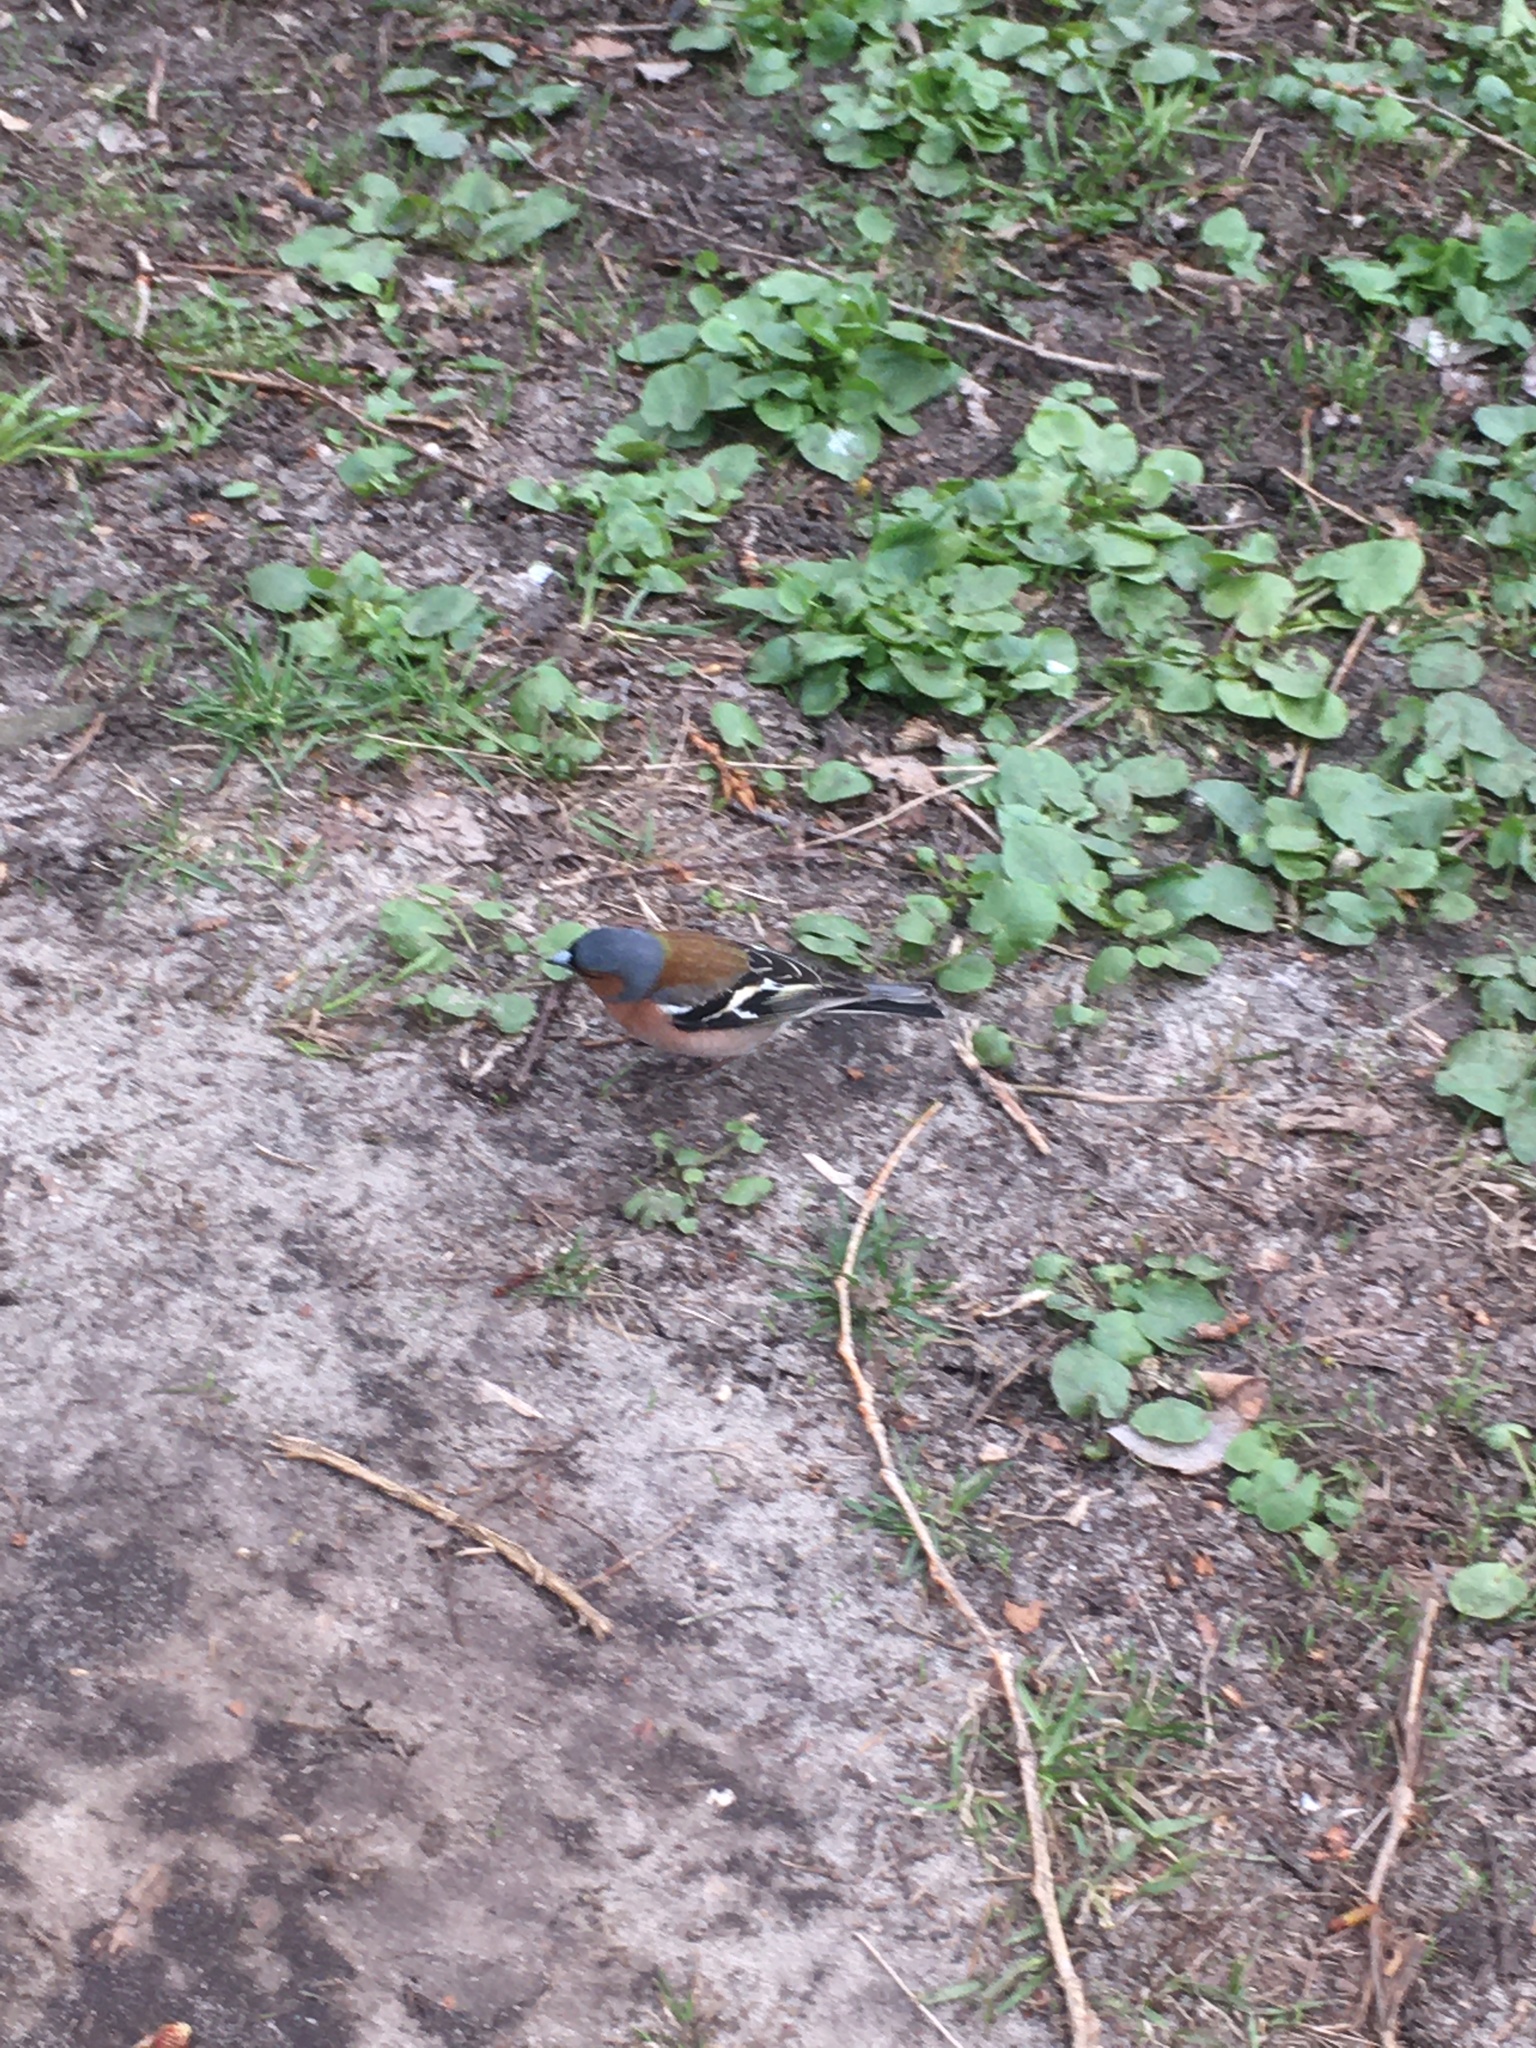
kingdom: Animalia
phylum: Chordata
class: Aves
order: Passeriformes
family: Fringillidae
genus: Fringilla
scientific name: Fringilla coelebs
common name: Common chaffinch
